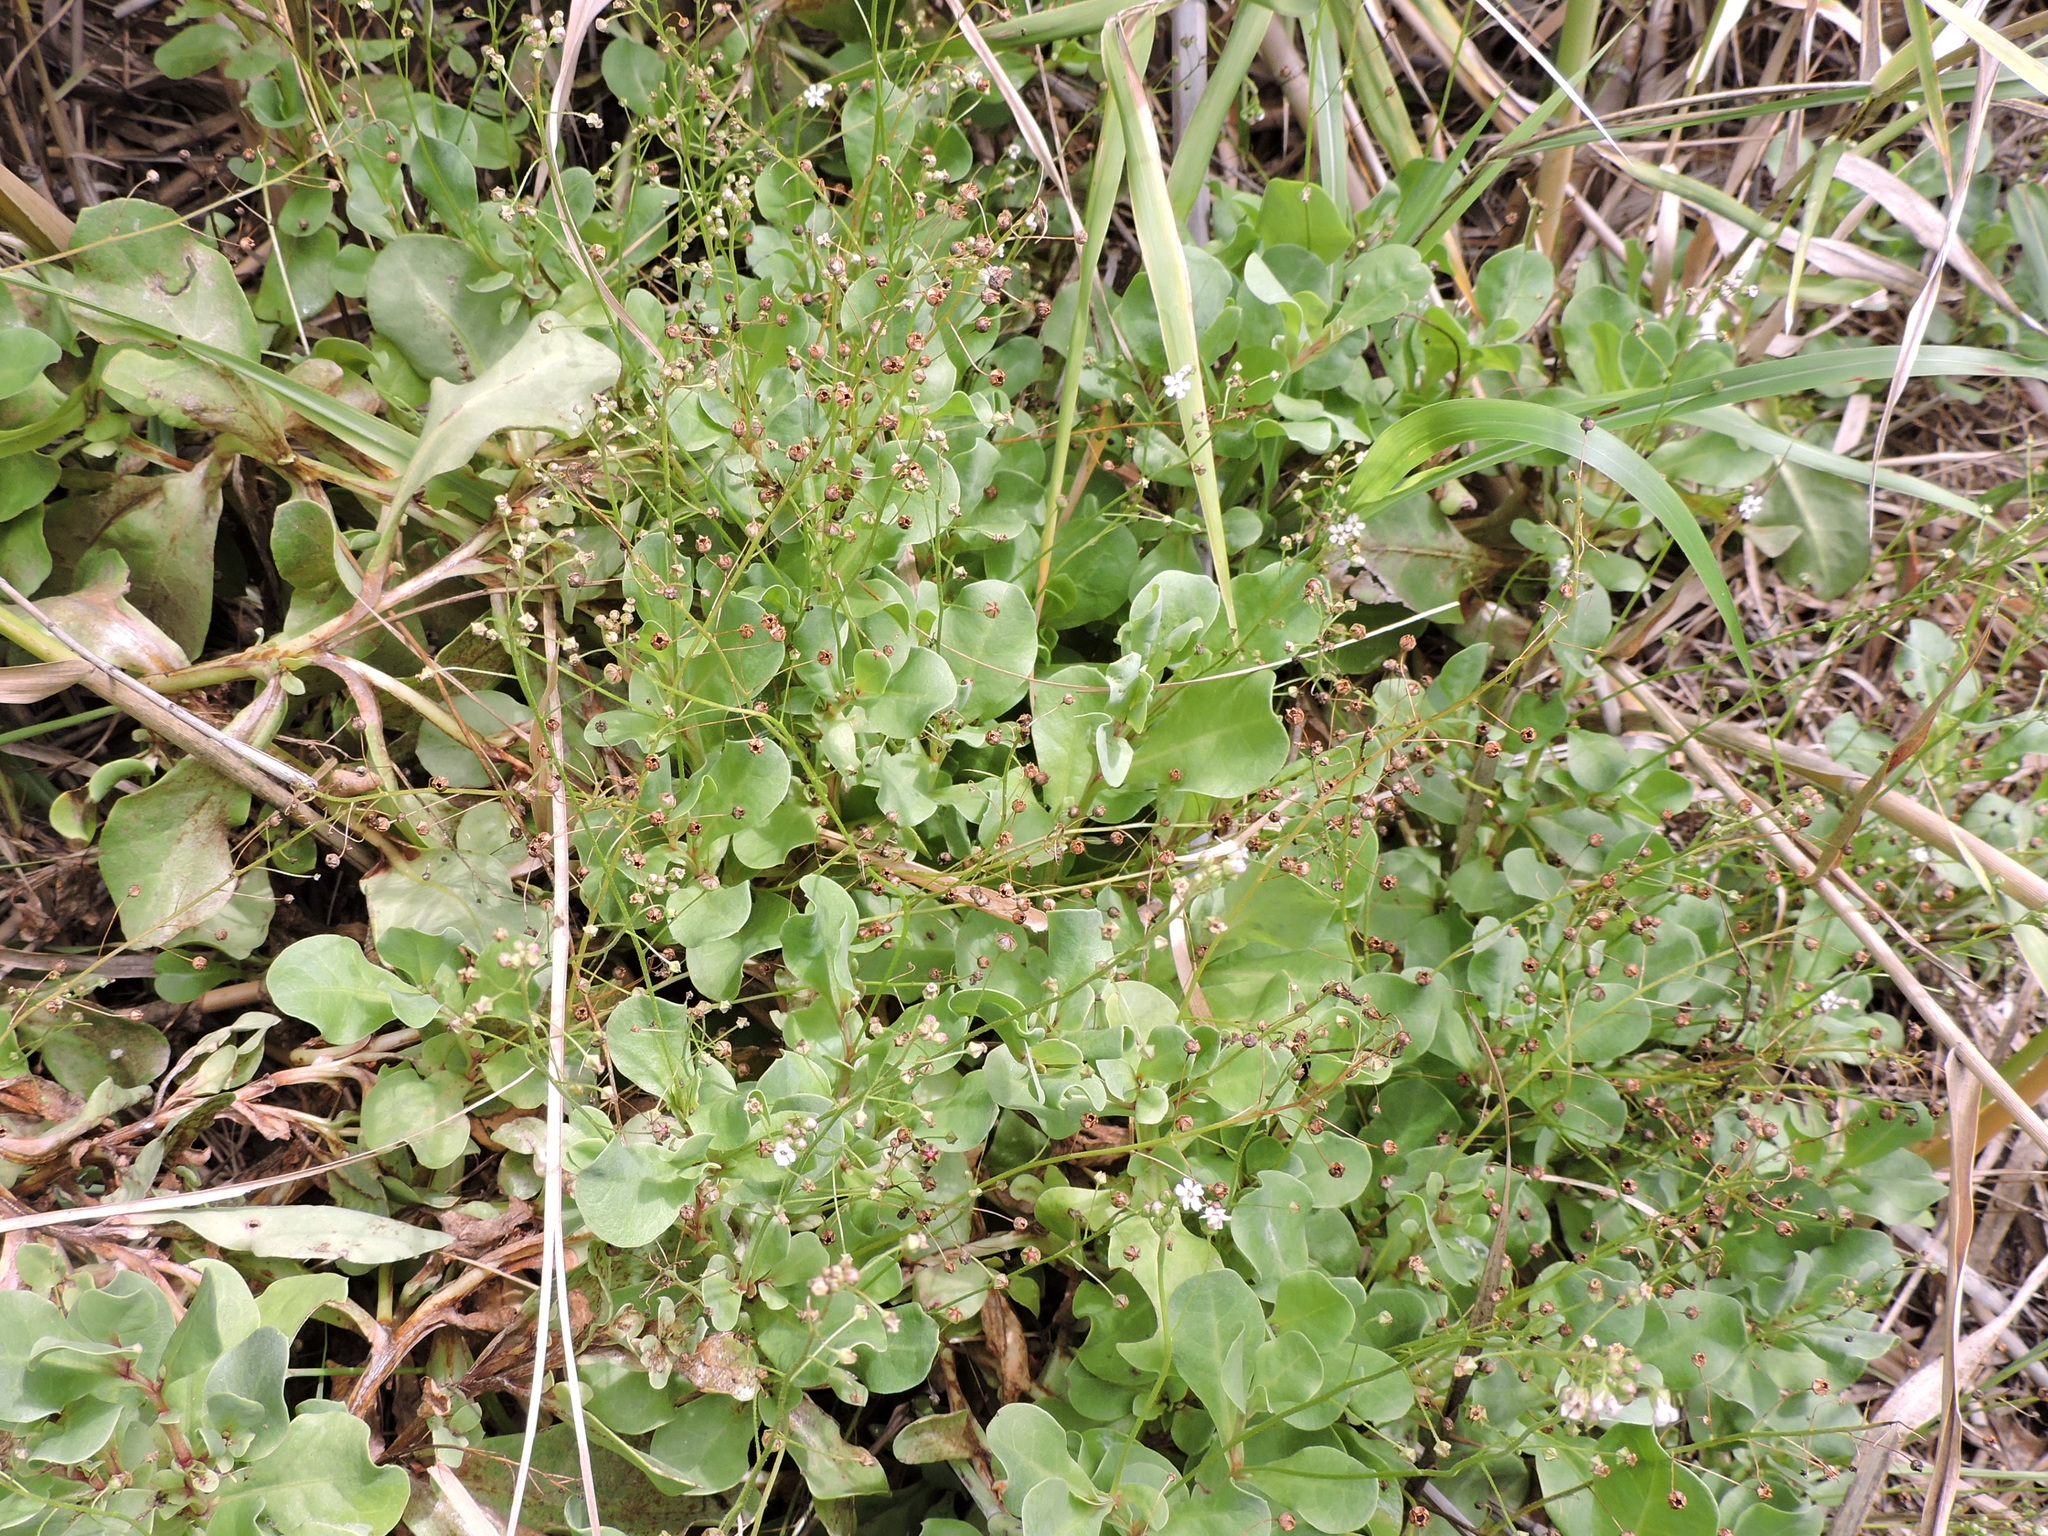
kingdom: Plantae
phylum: Tracheophyta
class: Magnoliopsida
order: Ericales
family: Primulaceae
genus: Samolus
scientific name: Samolus ebracteatus
